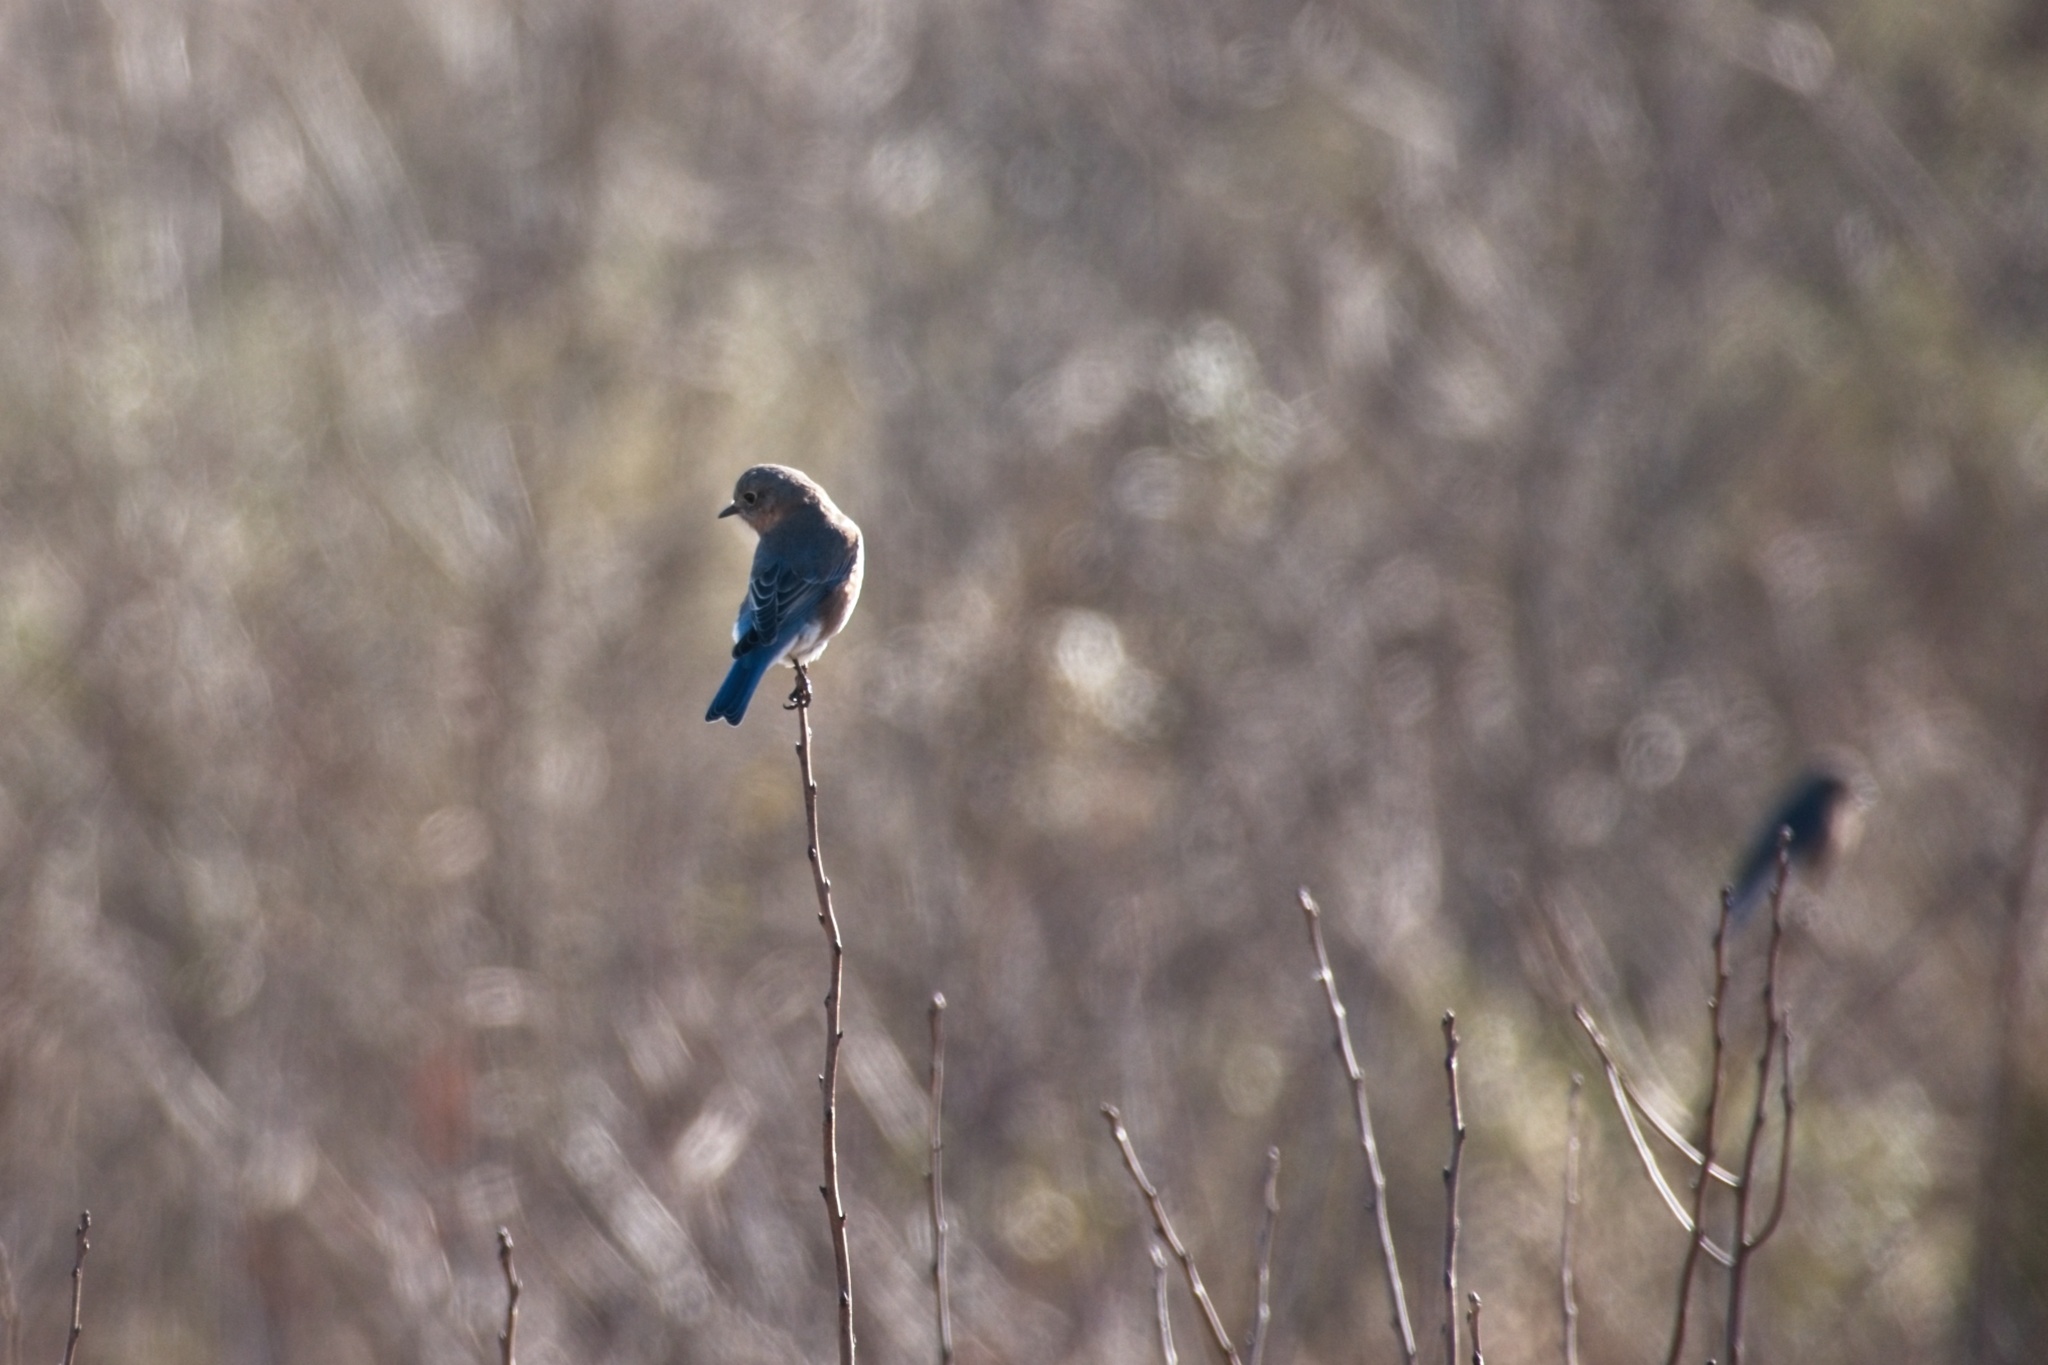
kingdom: Animalia
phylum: Chordata
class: Aves
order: Passeriformes
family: Turdidae
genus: Sialia
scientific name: Sialia sialis
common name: Eastern bluebird
